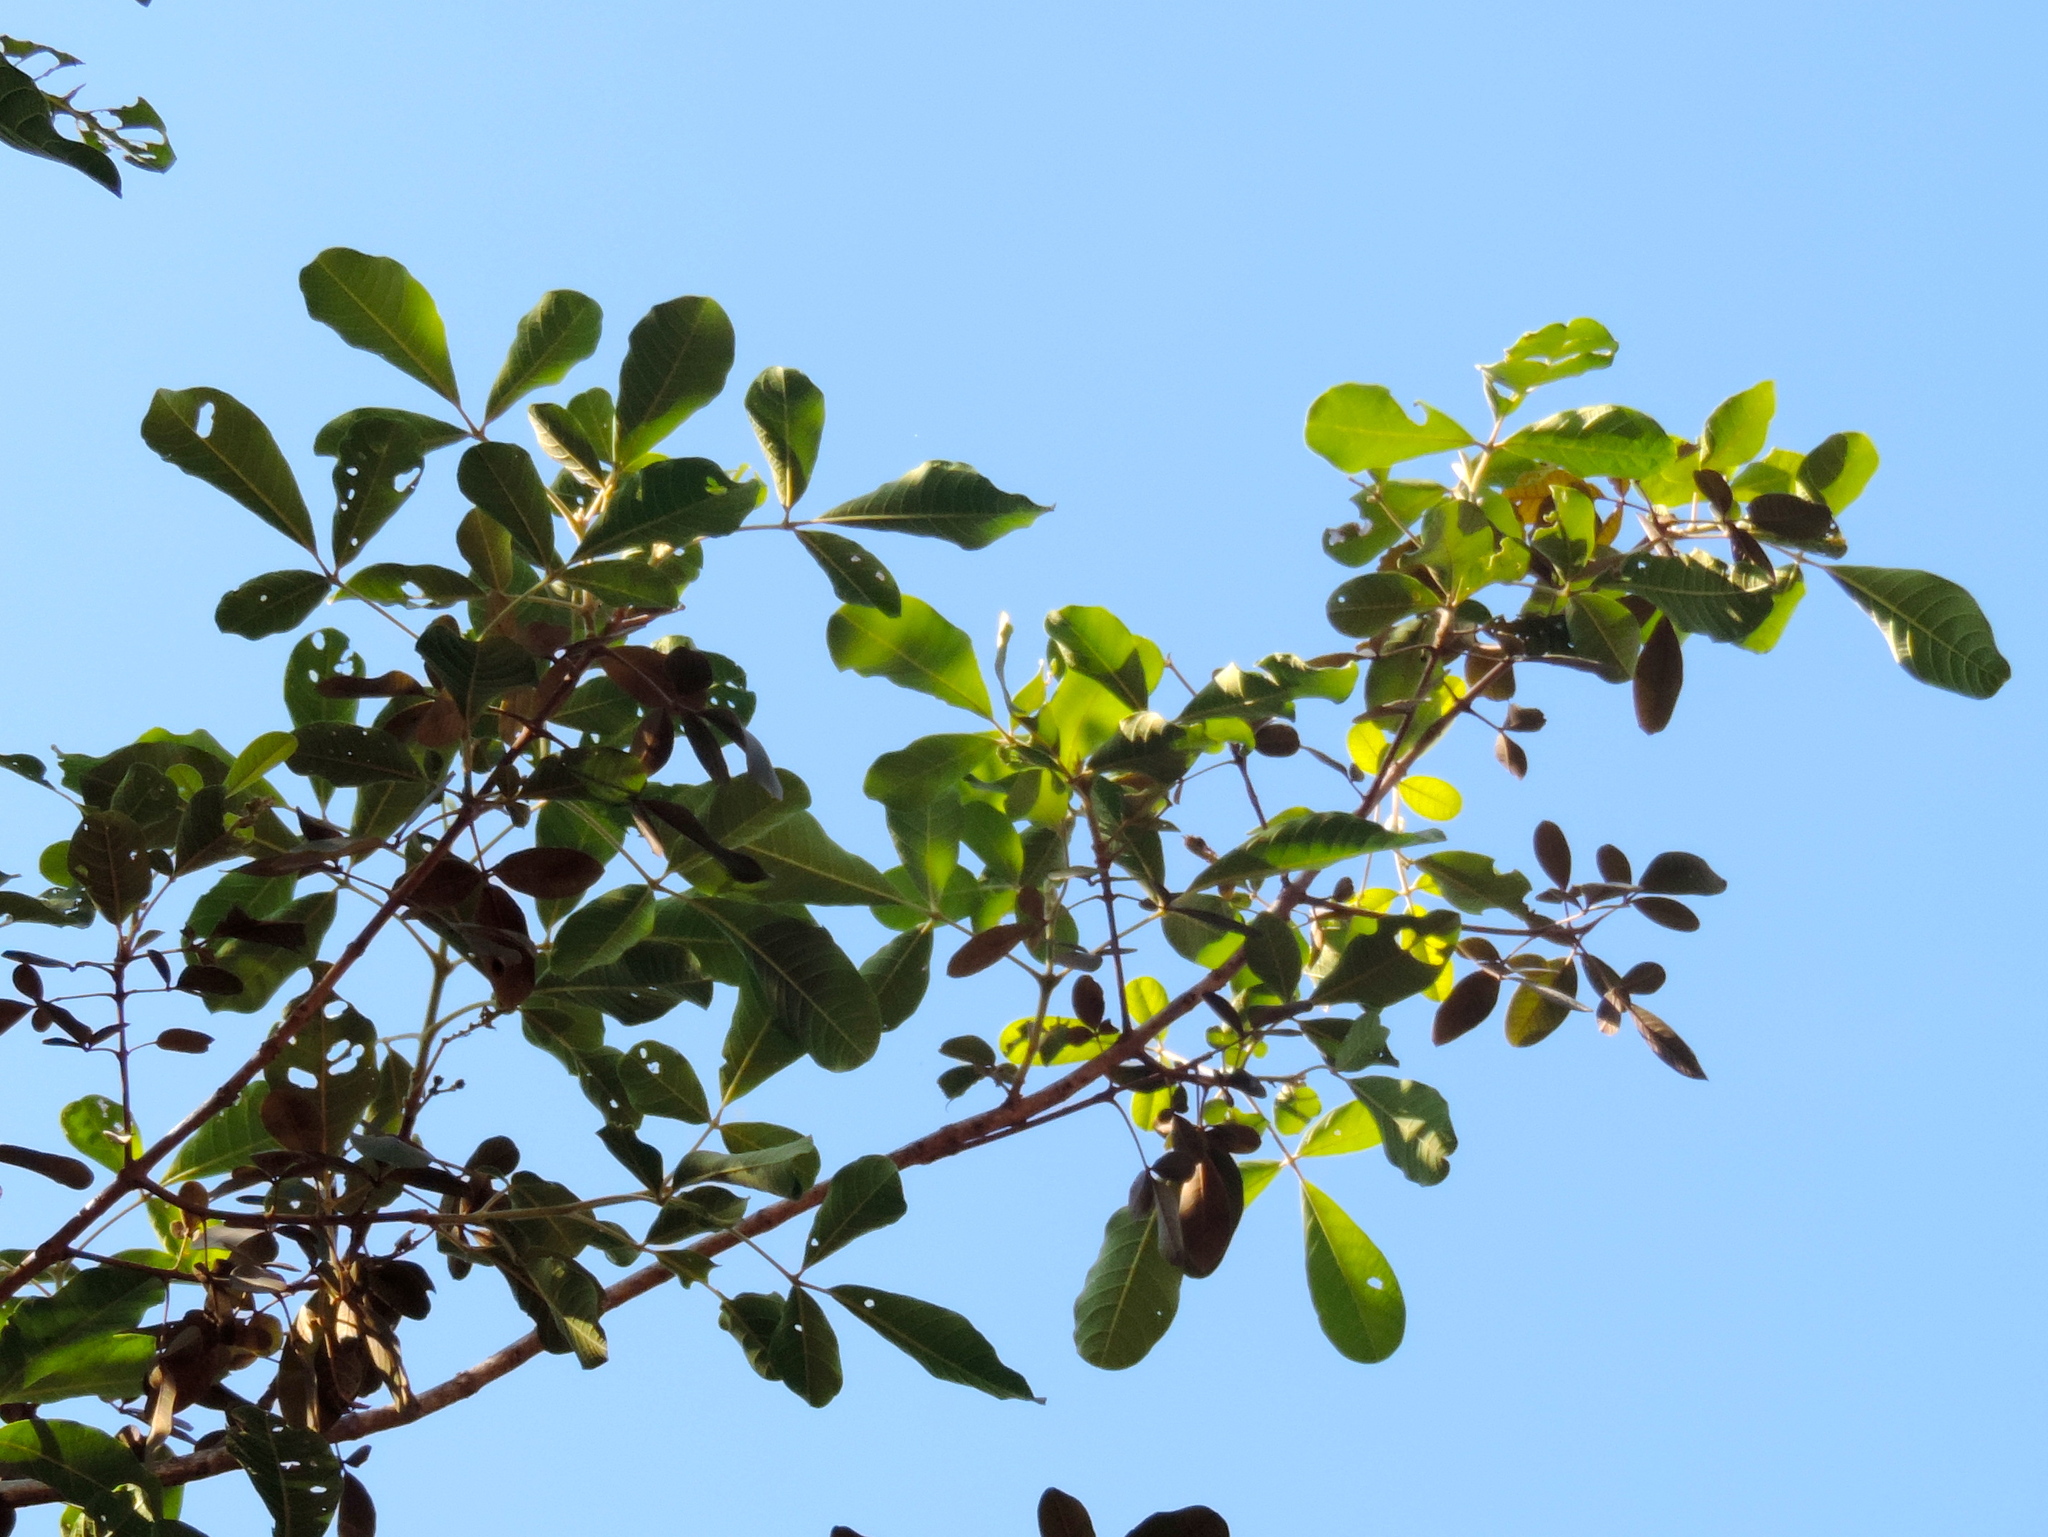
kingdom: Plantae
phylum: Tracheophyta
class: Magnoliopsida
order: Lamiales
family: Lamiaceae
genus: Vitex
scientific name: Vitex mollis
